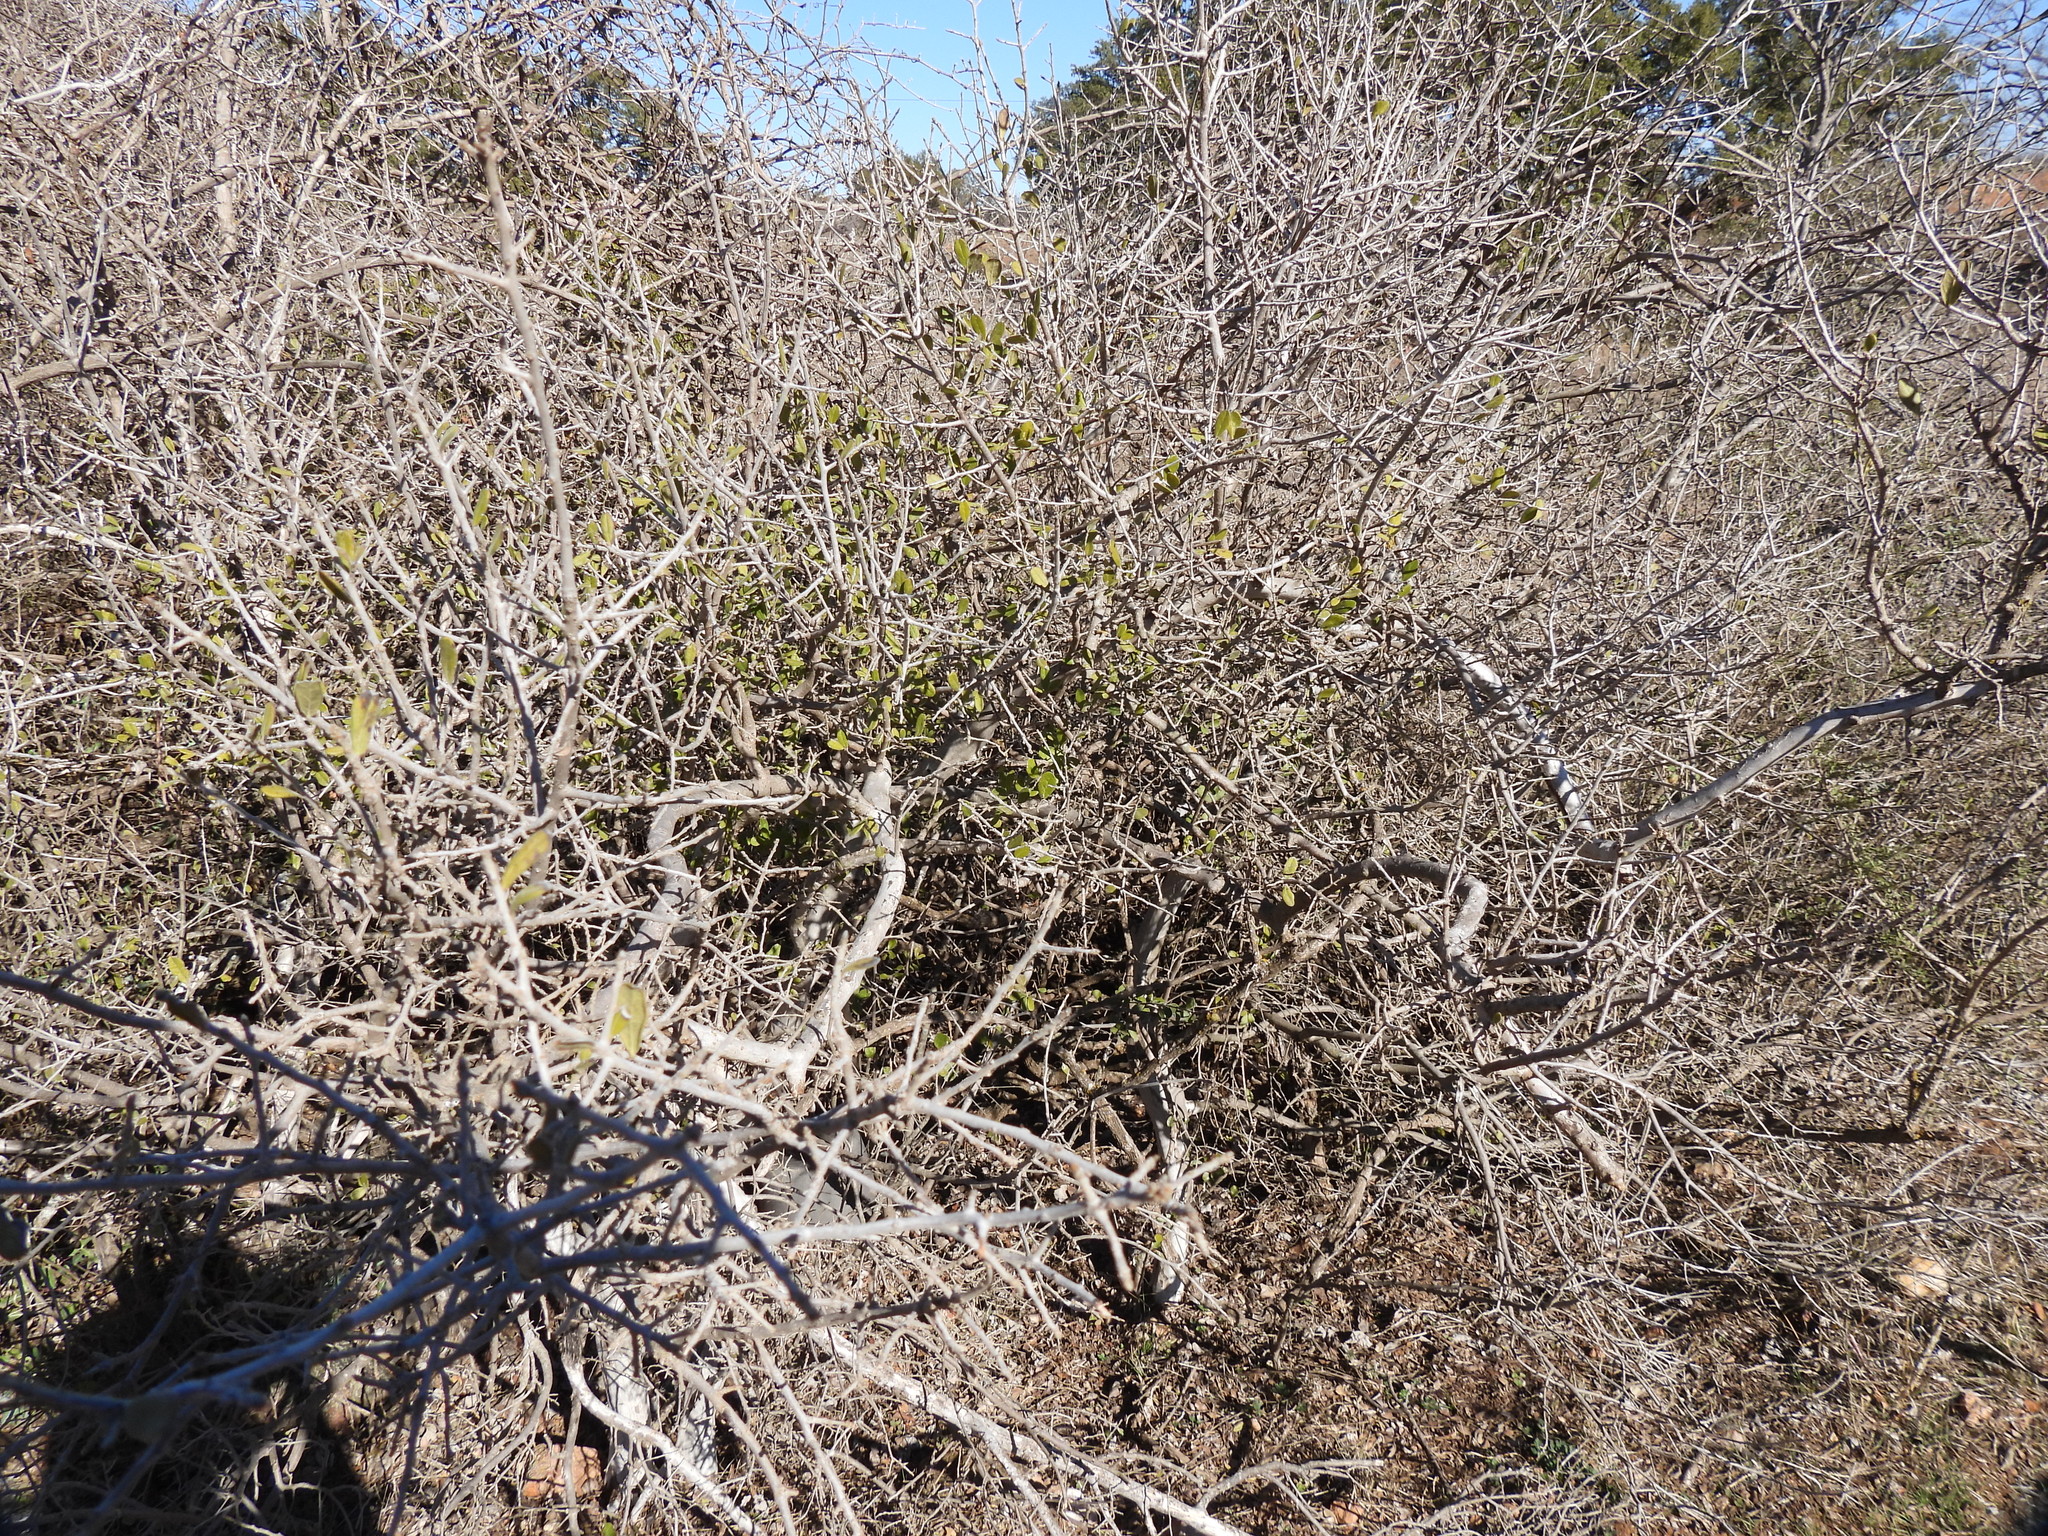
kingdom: Plantae
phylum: Tracheophyta
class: Magnoliopsida
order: Ericales
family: Ebenaceae
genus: Diospyros
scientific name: Diospyros texana
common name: Texas persimmon
